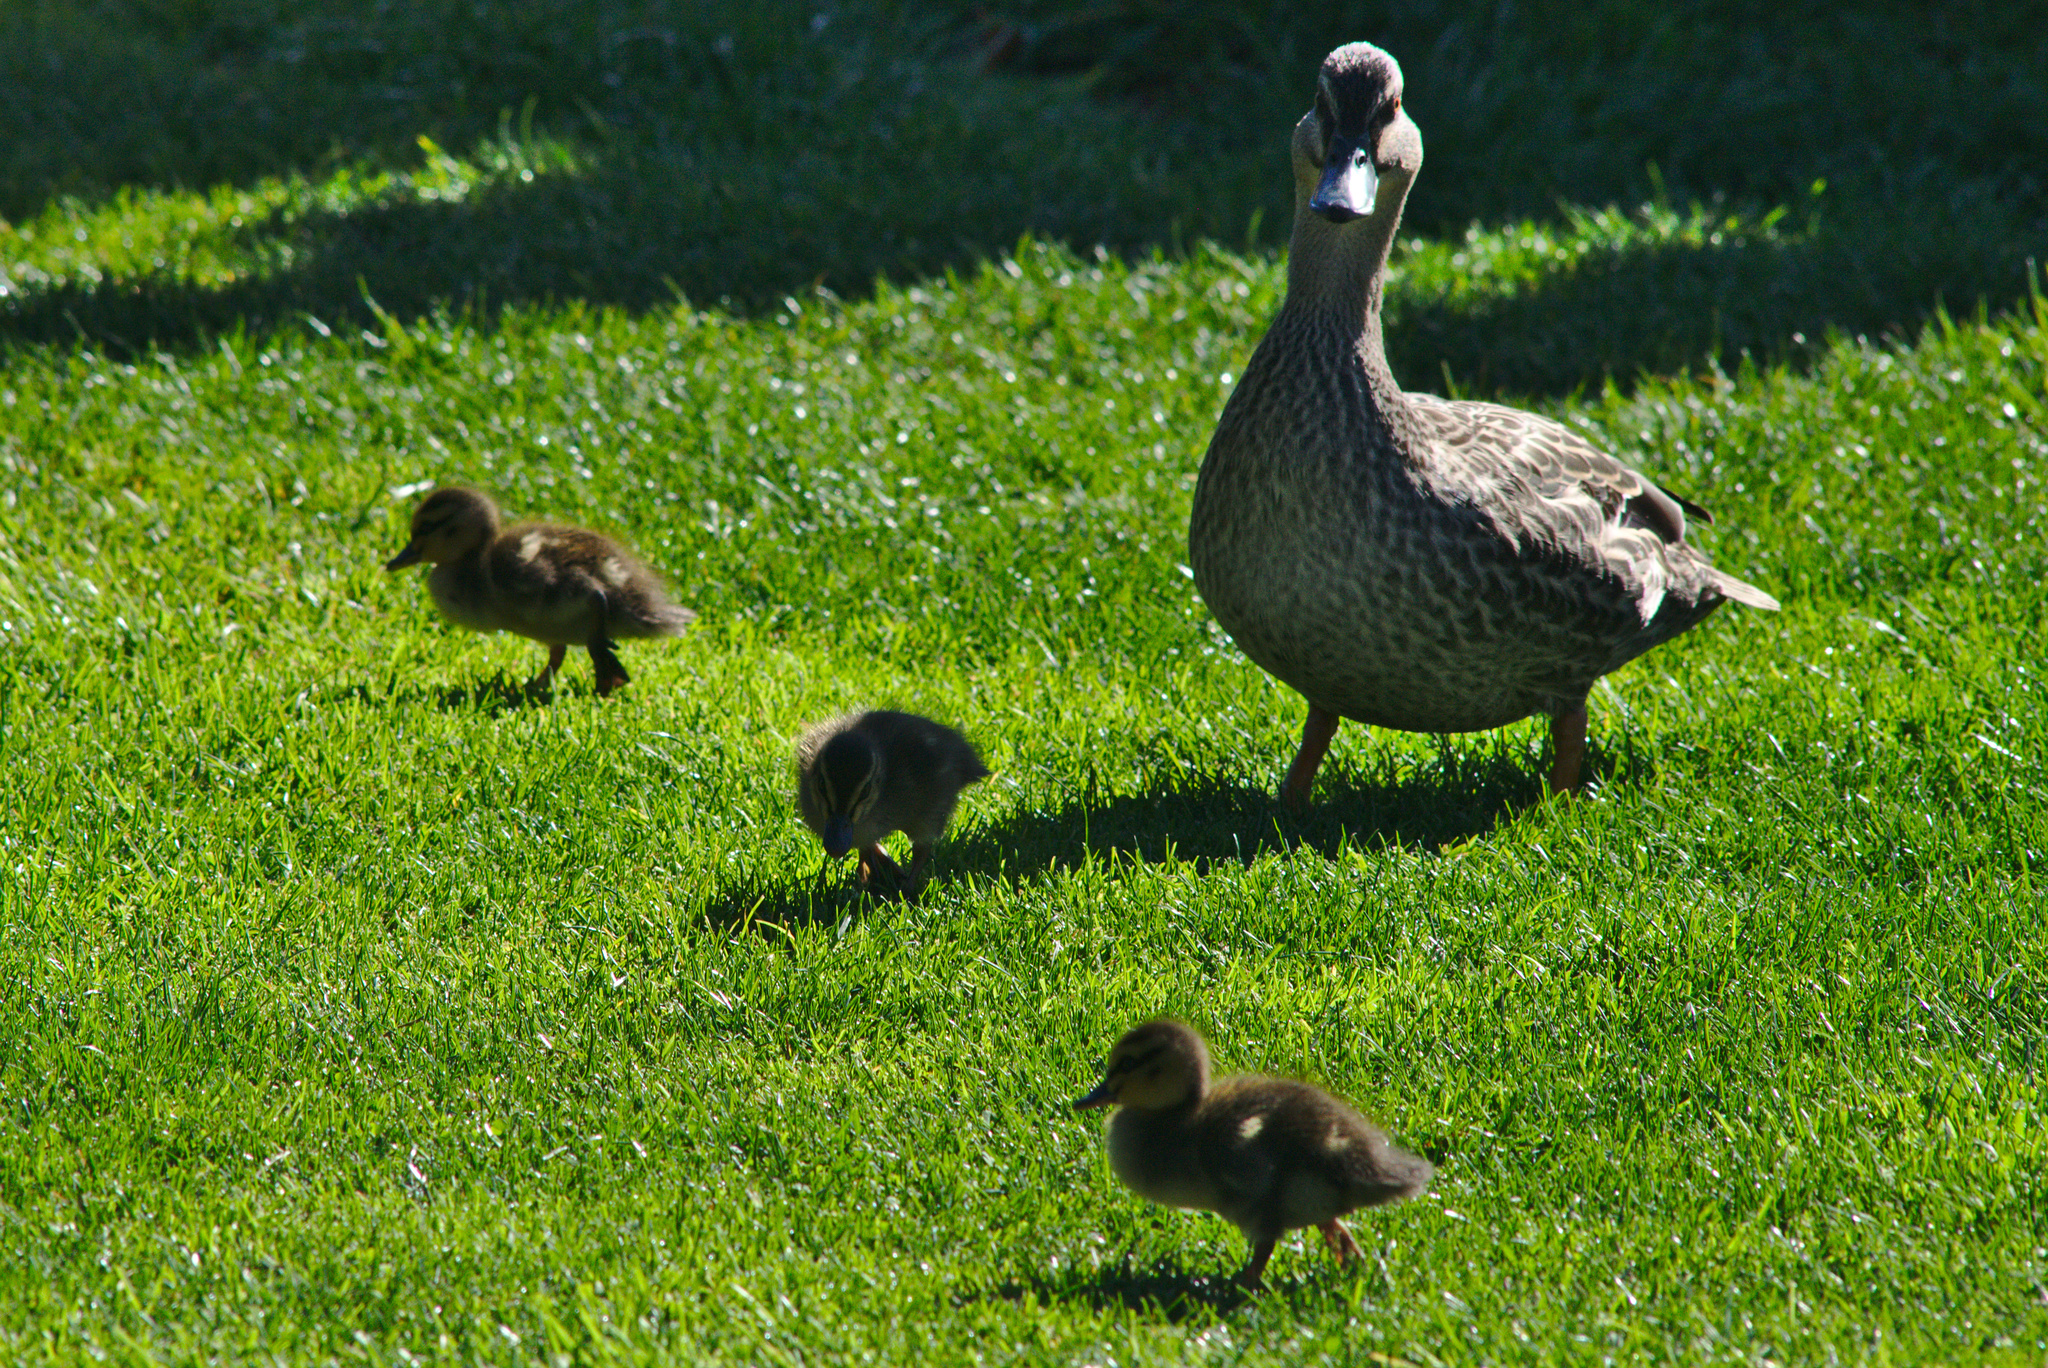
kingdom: Animalia
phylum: Chordata
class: Aves
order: Anseriformes
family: Anatidae
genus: Anas
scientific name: Anas
